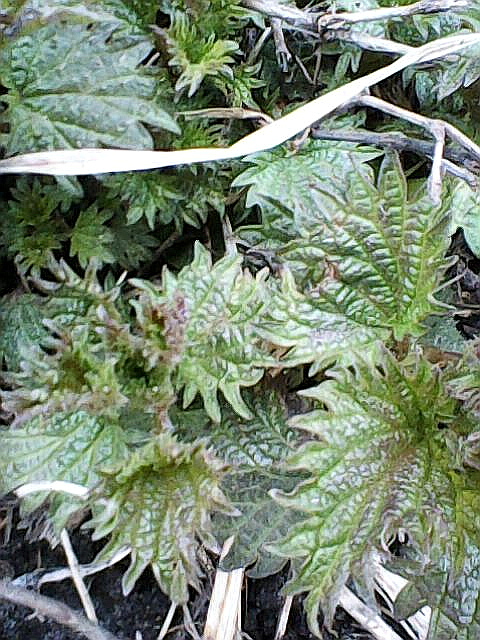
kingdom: Plantae
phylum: Tracheophyta
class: Magnoliopsida
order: Rosales
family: Urticaceae
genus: Urtica
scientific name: Urtica dioica
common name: Common nettle
